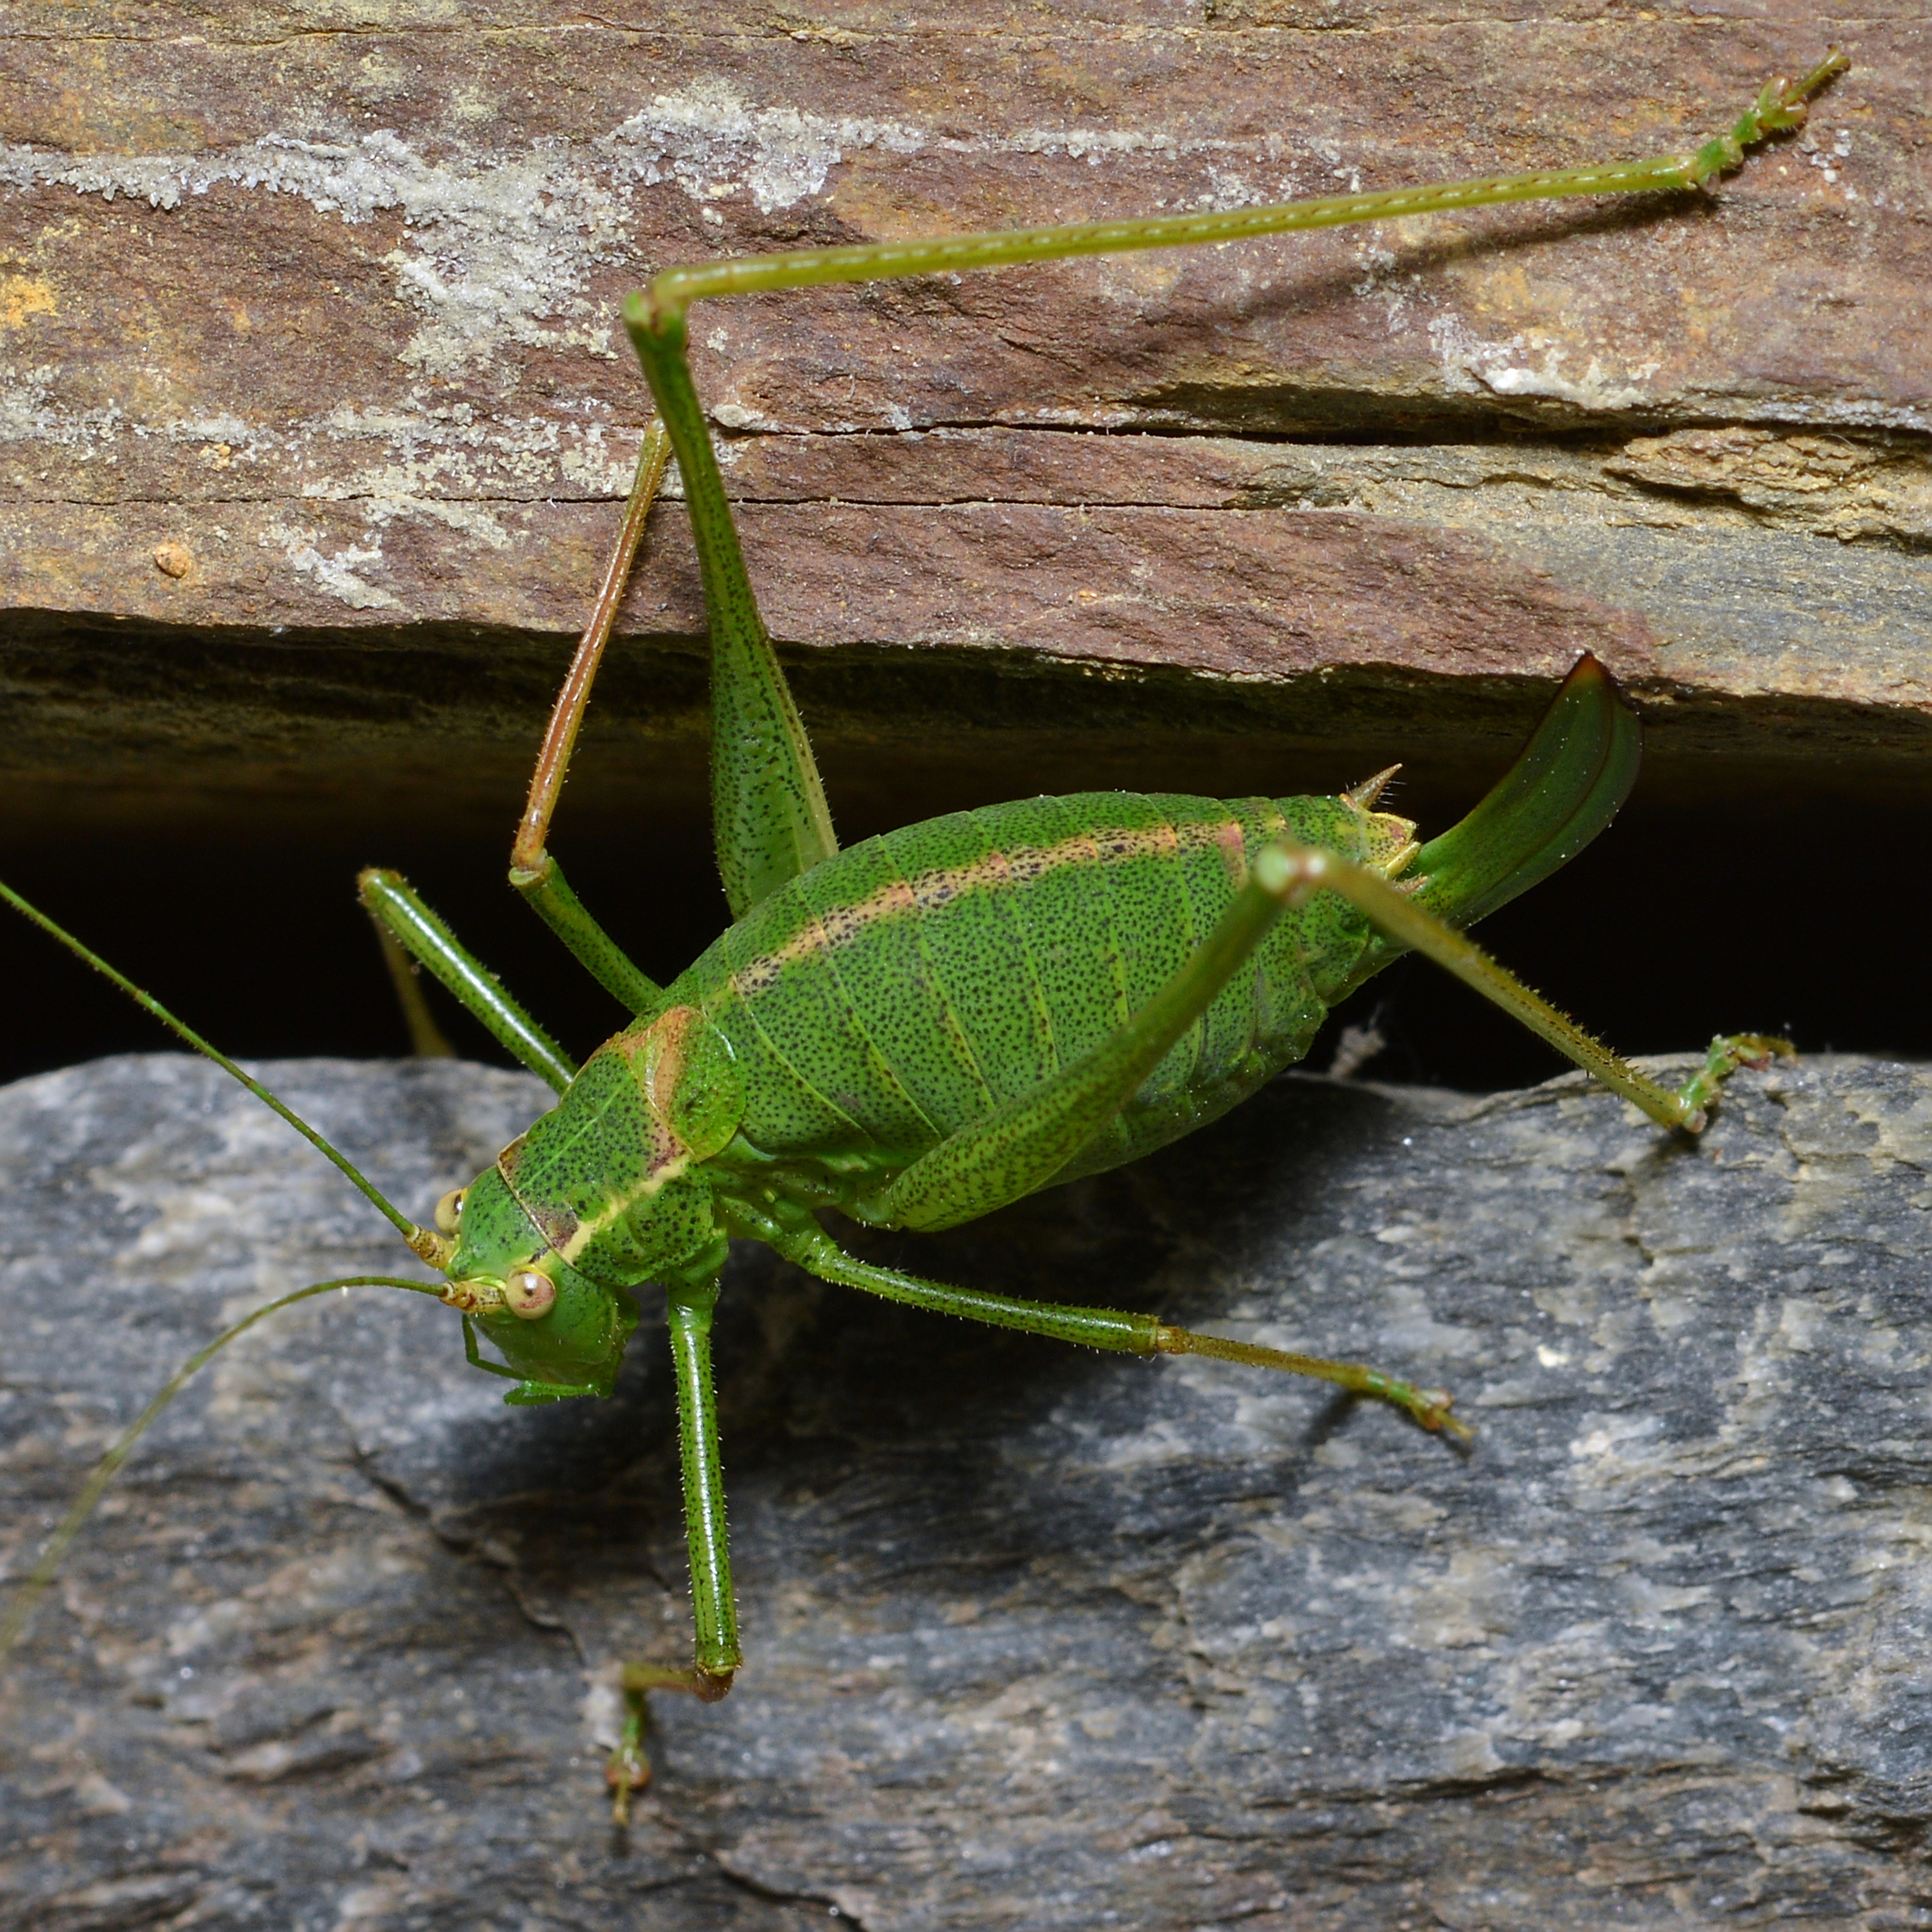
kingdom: Animalia
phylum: Arthropoda
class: Insecta
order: Orthoptera
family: Tettigoniidae
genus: Leptophyes
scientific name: Leptophyes punctatissima
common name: Speckled bush-cricket
